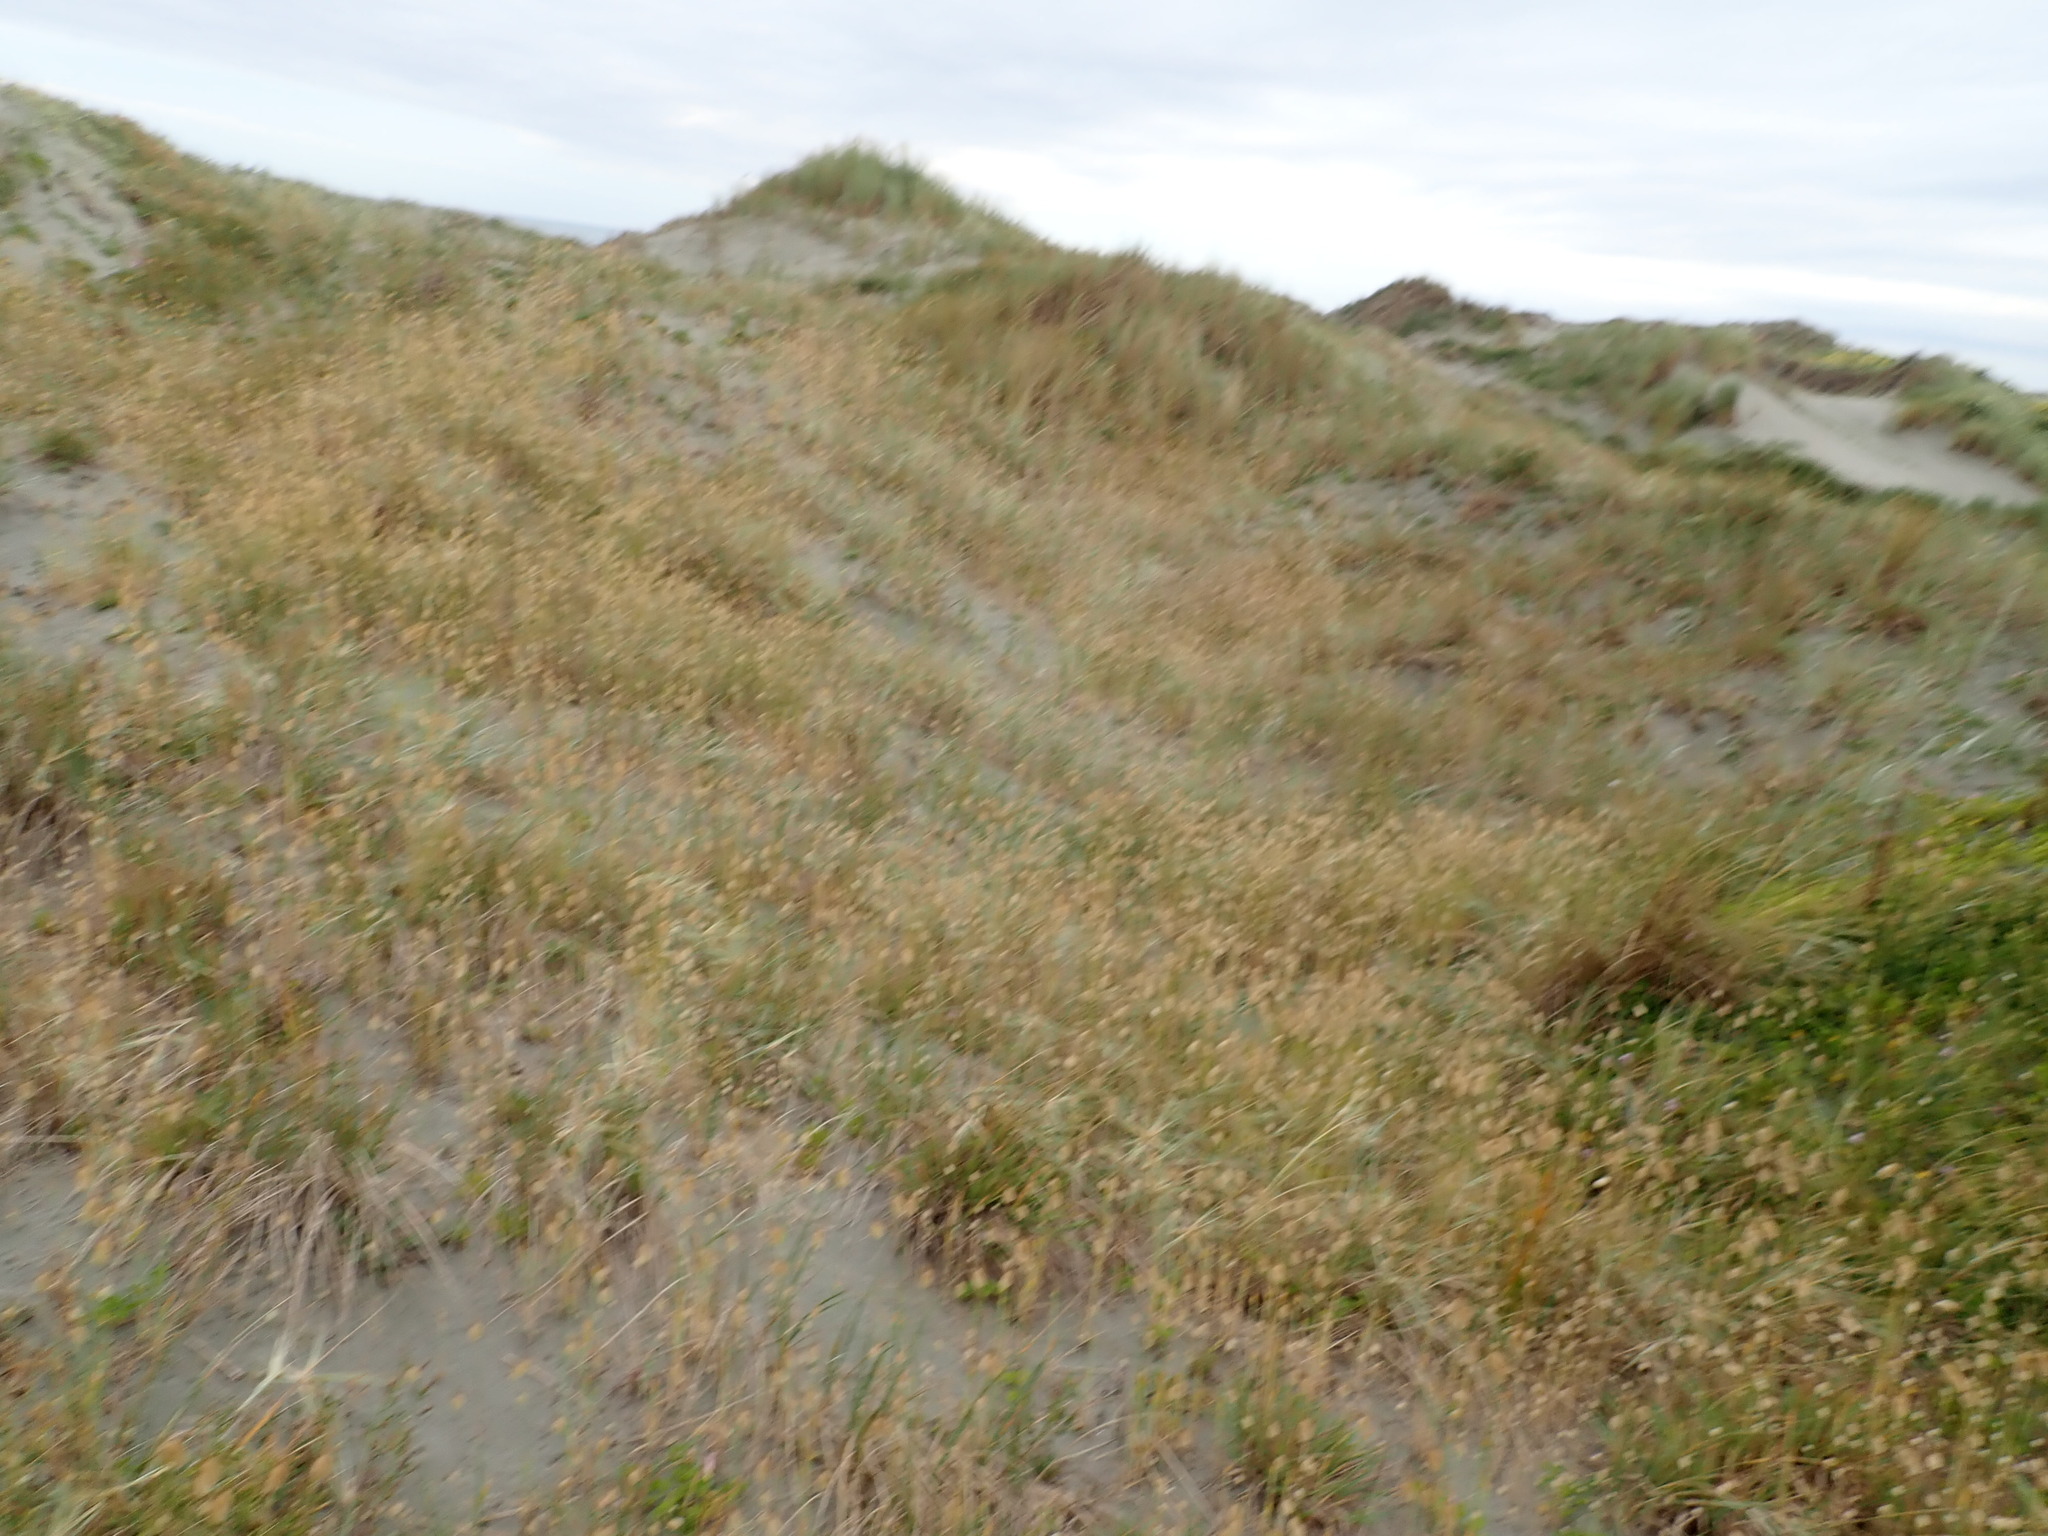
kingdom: Plantae
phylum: Tracheophyta
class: Liliopsida
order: Poales
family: Poaceae
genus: Lagurus
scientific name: Lagurus ovatus
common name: Hare's-tail
